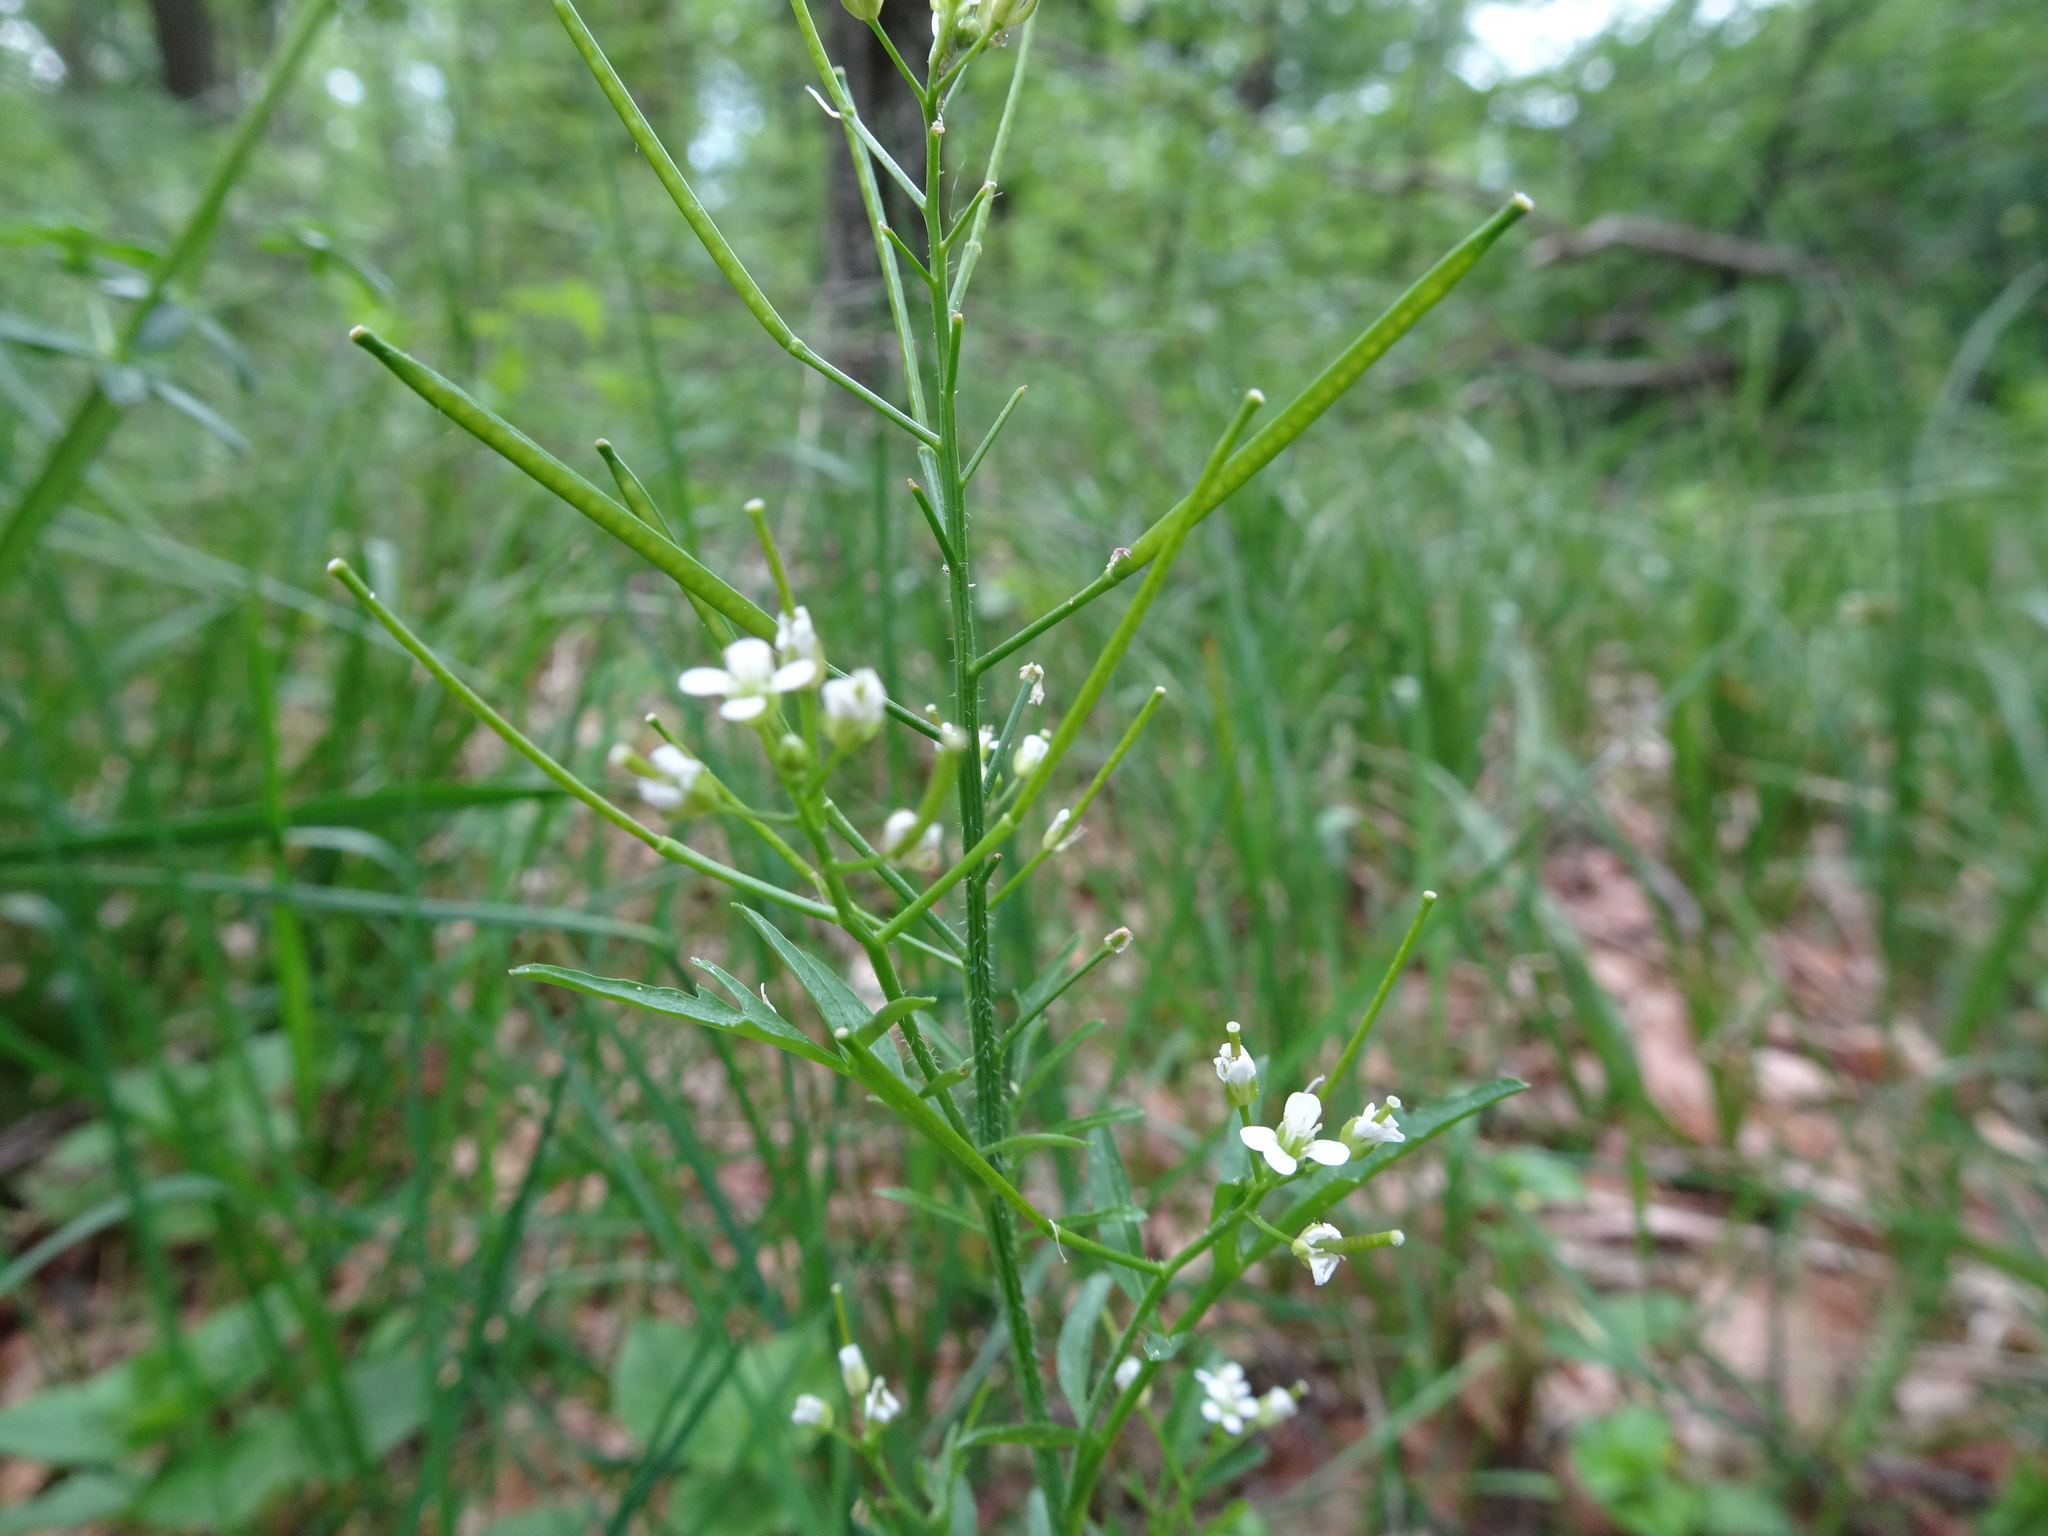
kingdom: Plantae
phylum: Tracheophyta
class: Magnoliopsida
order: Brassicales
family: Brassicaceae
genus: Cardamine
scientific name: Cardamine flexuosa
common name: Woodland bittercress
